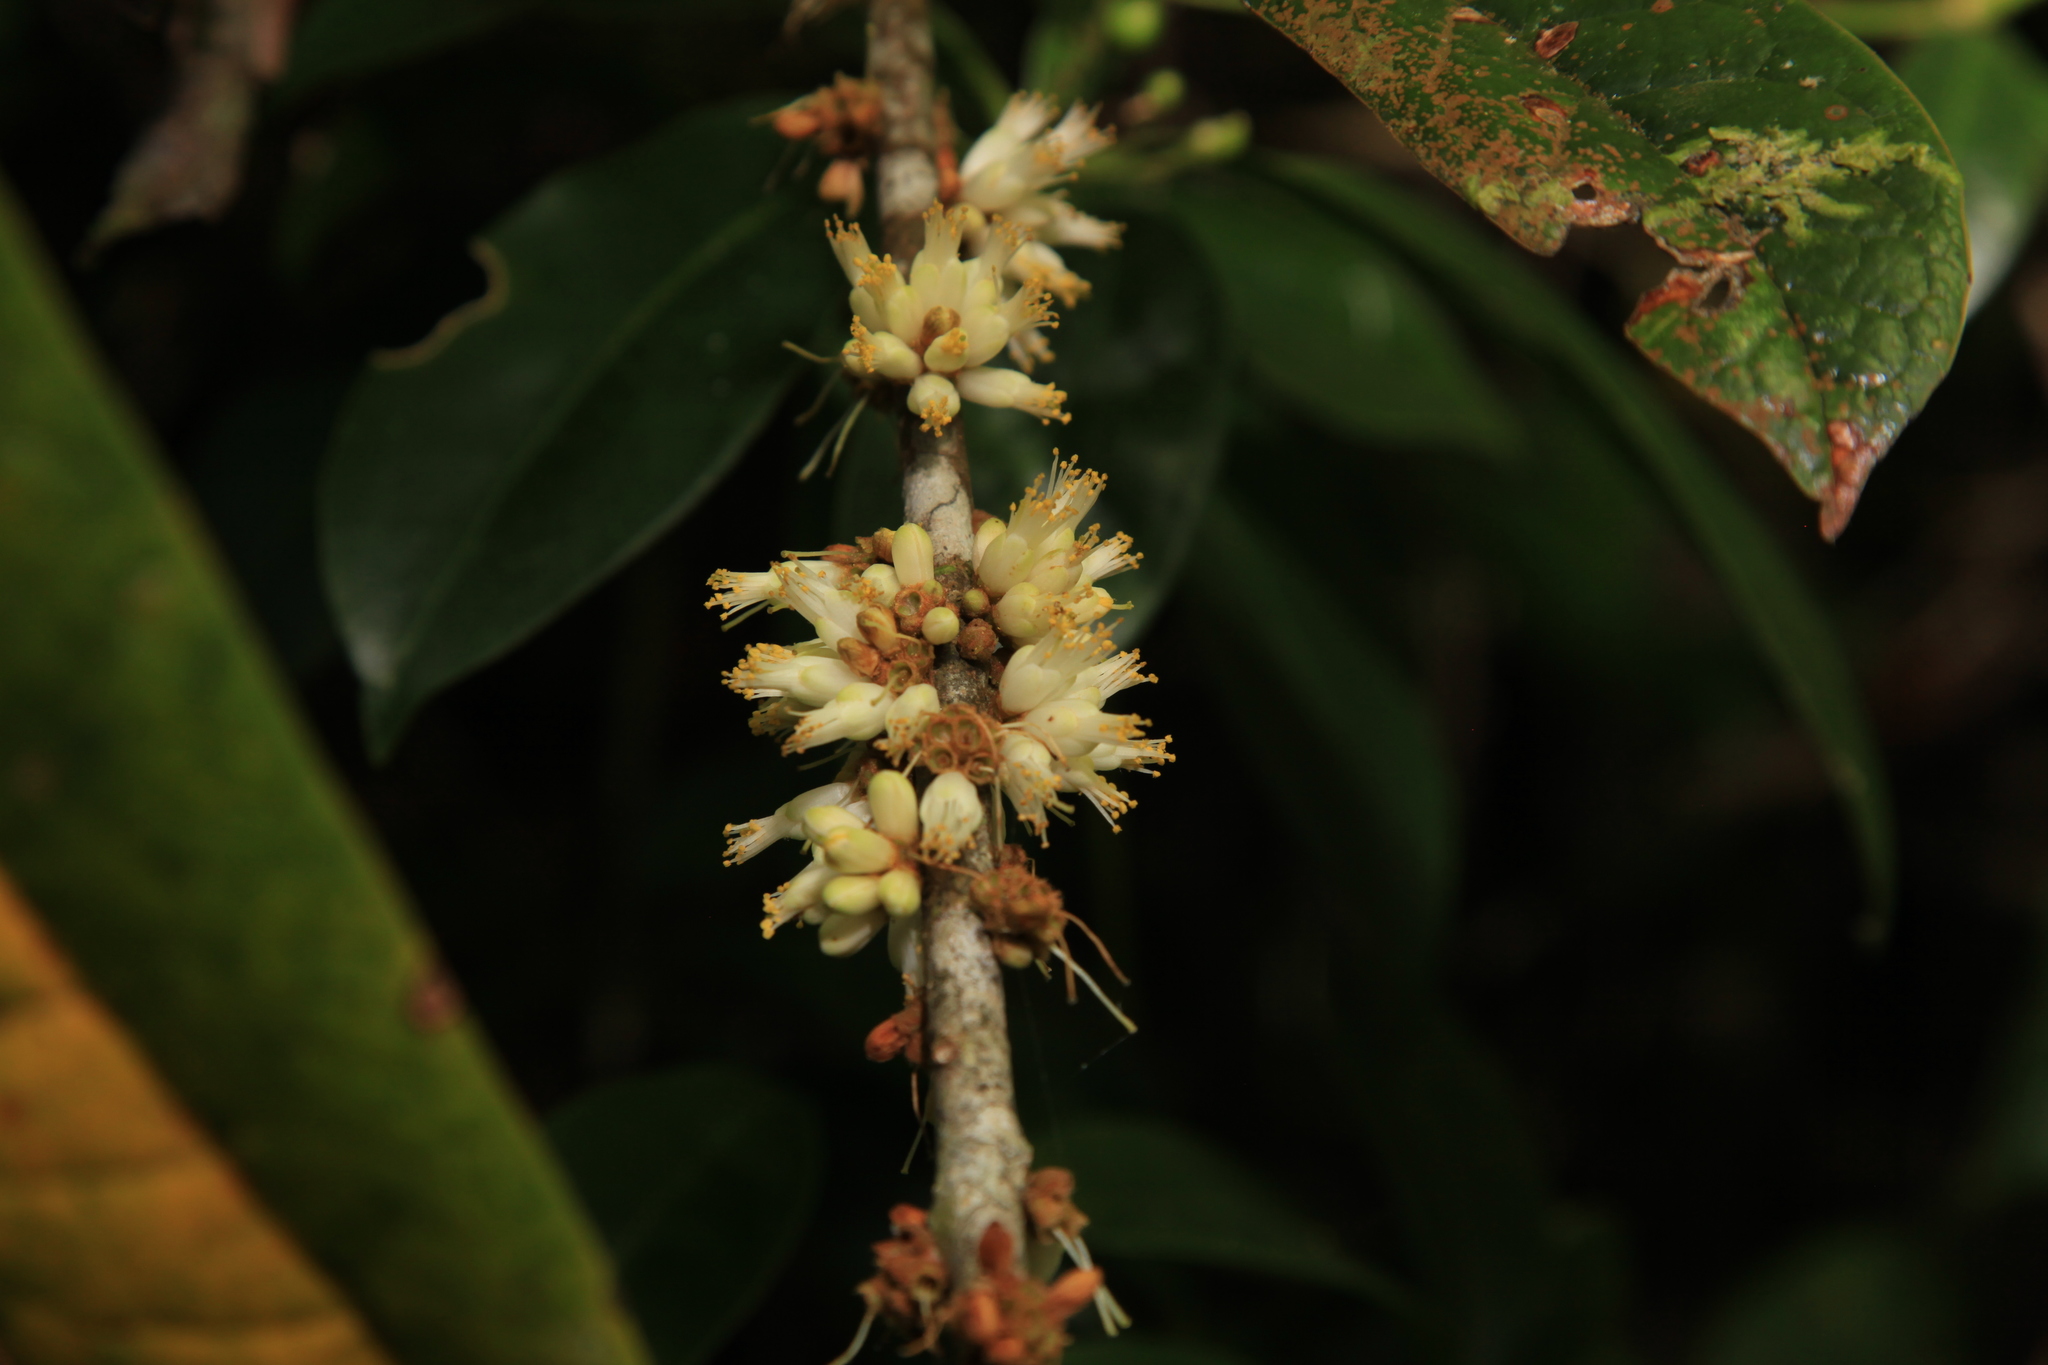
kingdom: Plantae
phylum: Tracheophyta
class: Magnoliopsida
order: Ericales
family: Symplocaceae
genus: Symplocos
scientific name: Symplocos stellaris
